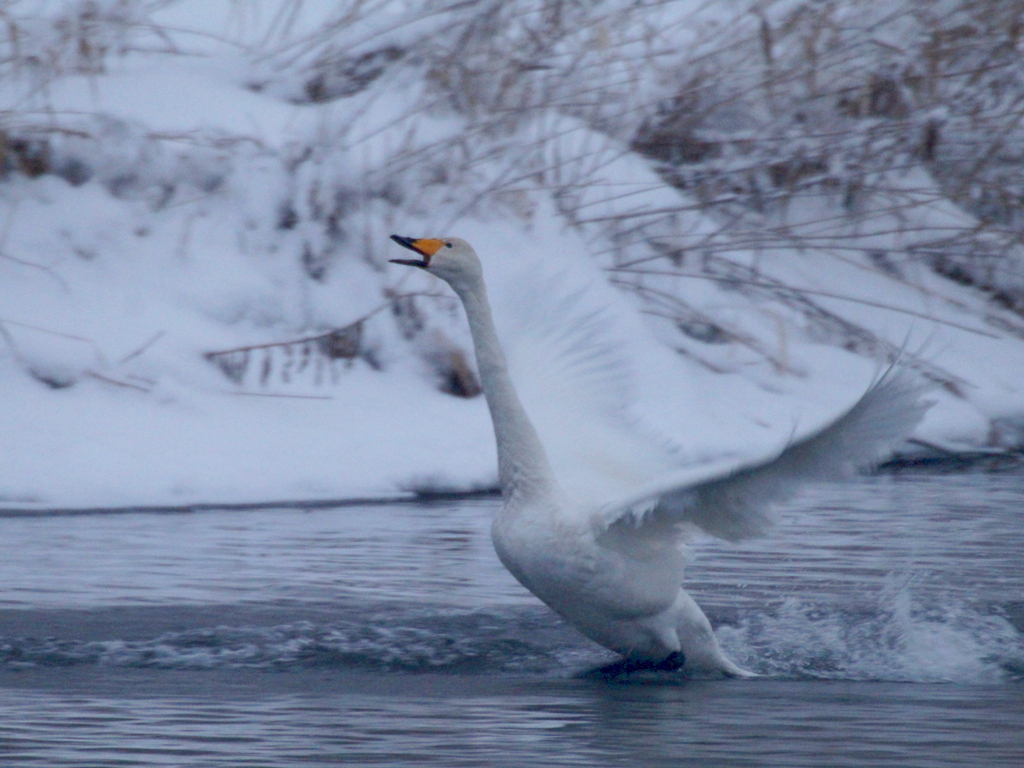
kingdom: Animalia
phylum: Chordata
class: Aves
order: Anseriformes
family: Anatidae
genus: Cygnus
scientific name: Cygnus cygnus
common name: Whooper swan
